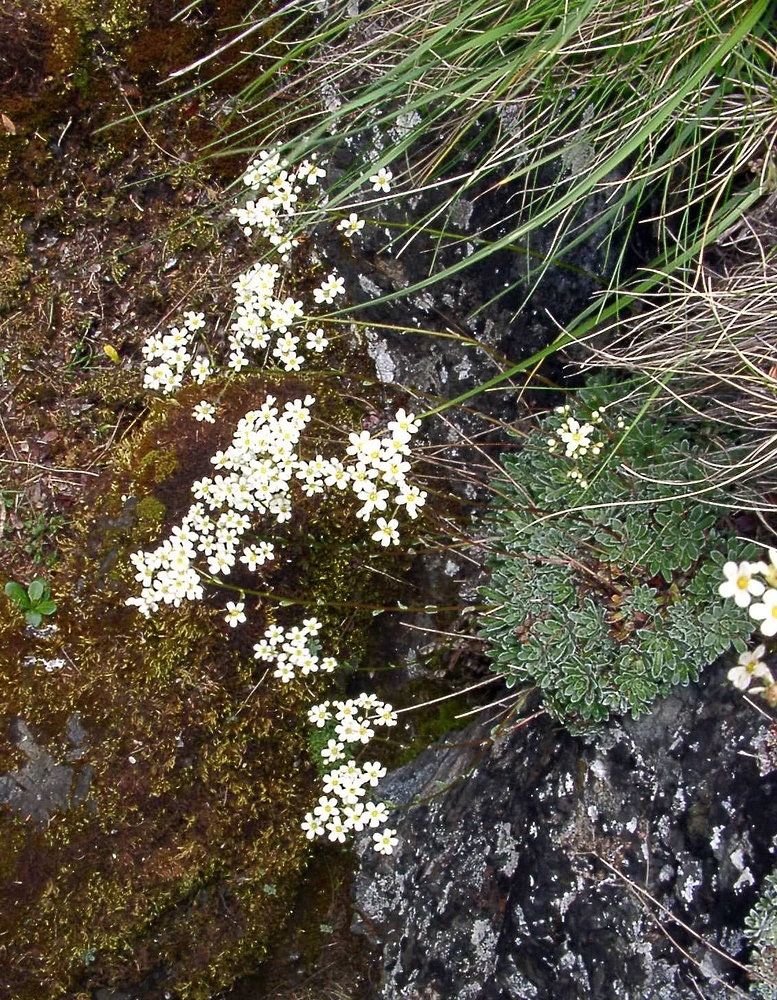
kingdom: Plantae
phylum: Tracheophyta
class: Magnoliopsida
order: Saxifragales
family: Saxifragaceae
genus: Saxifraga
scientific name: Saxifraga paniculata
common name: Livelong saxifrage
